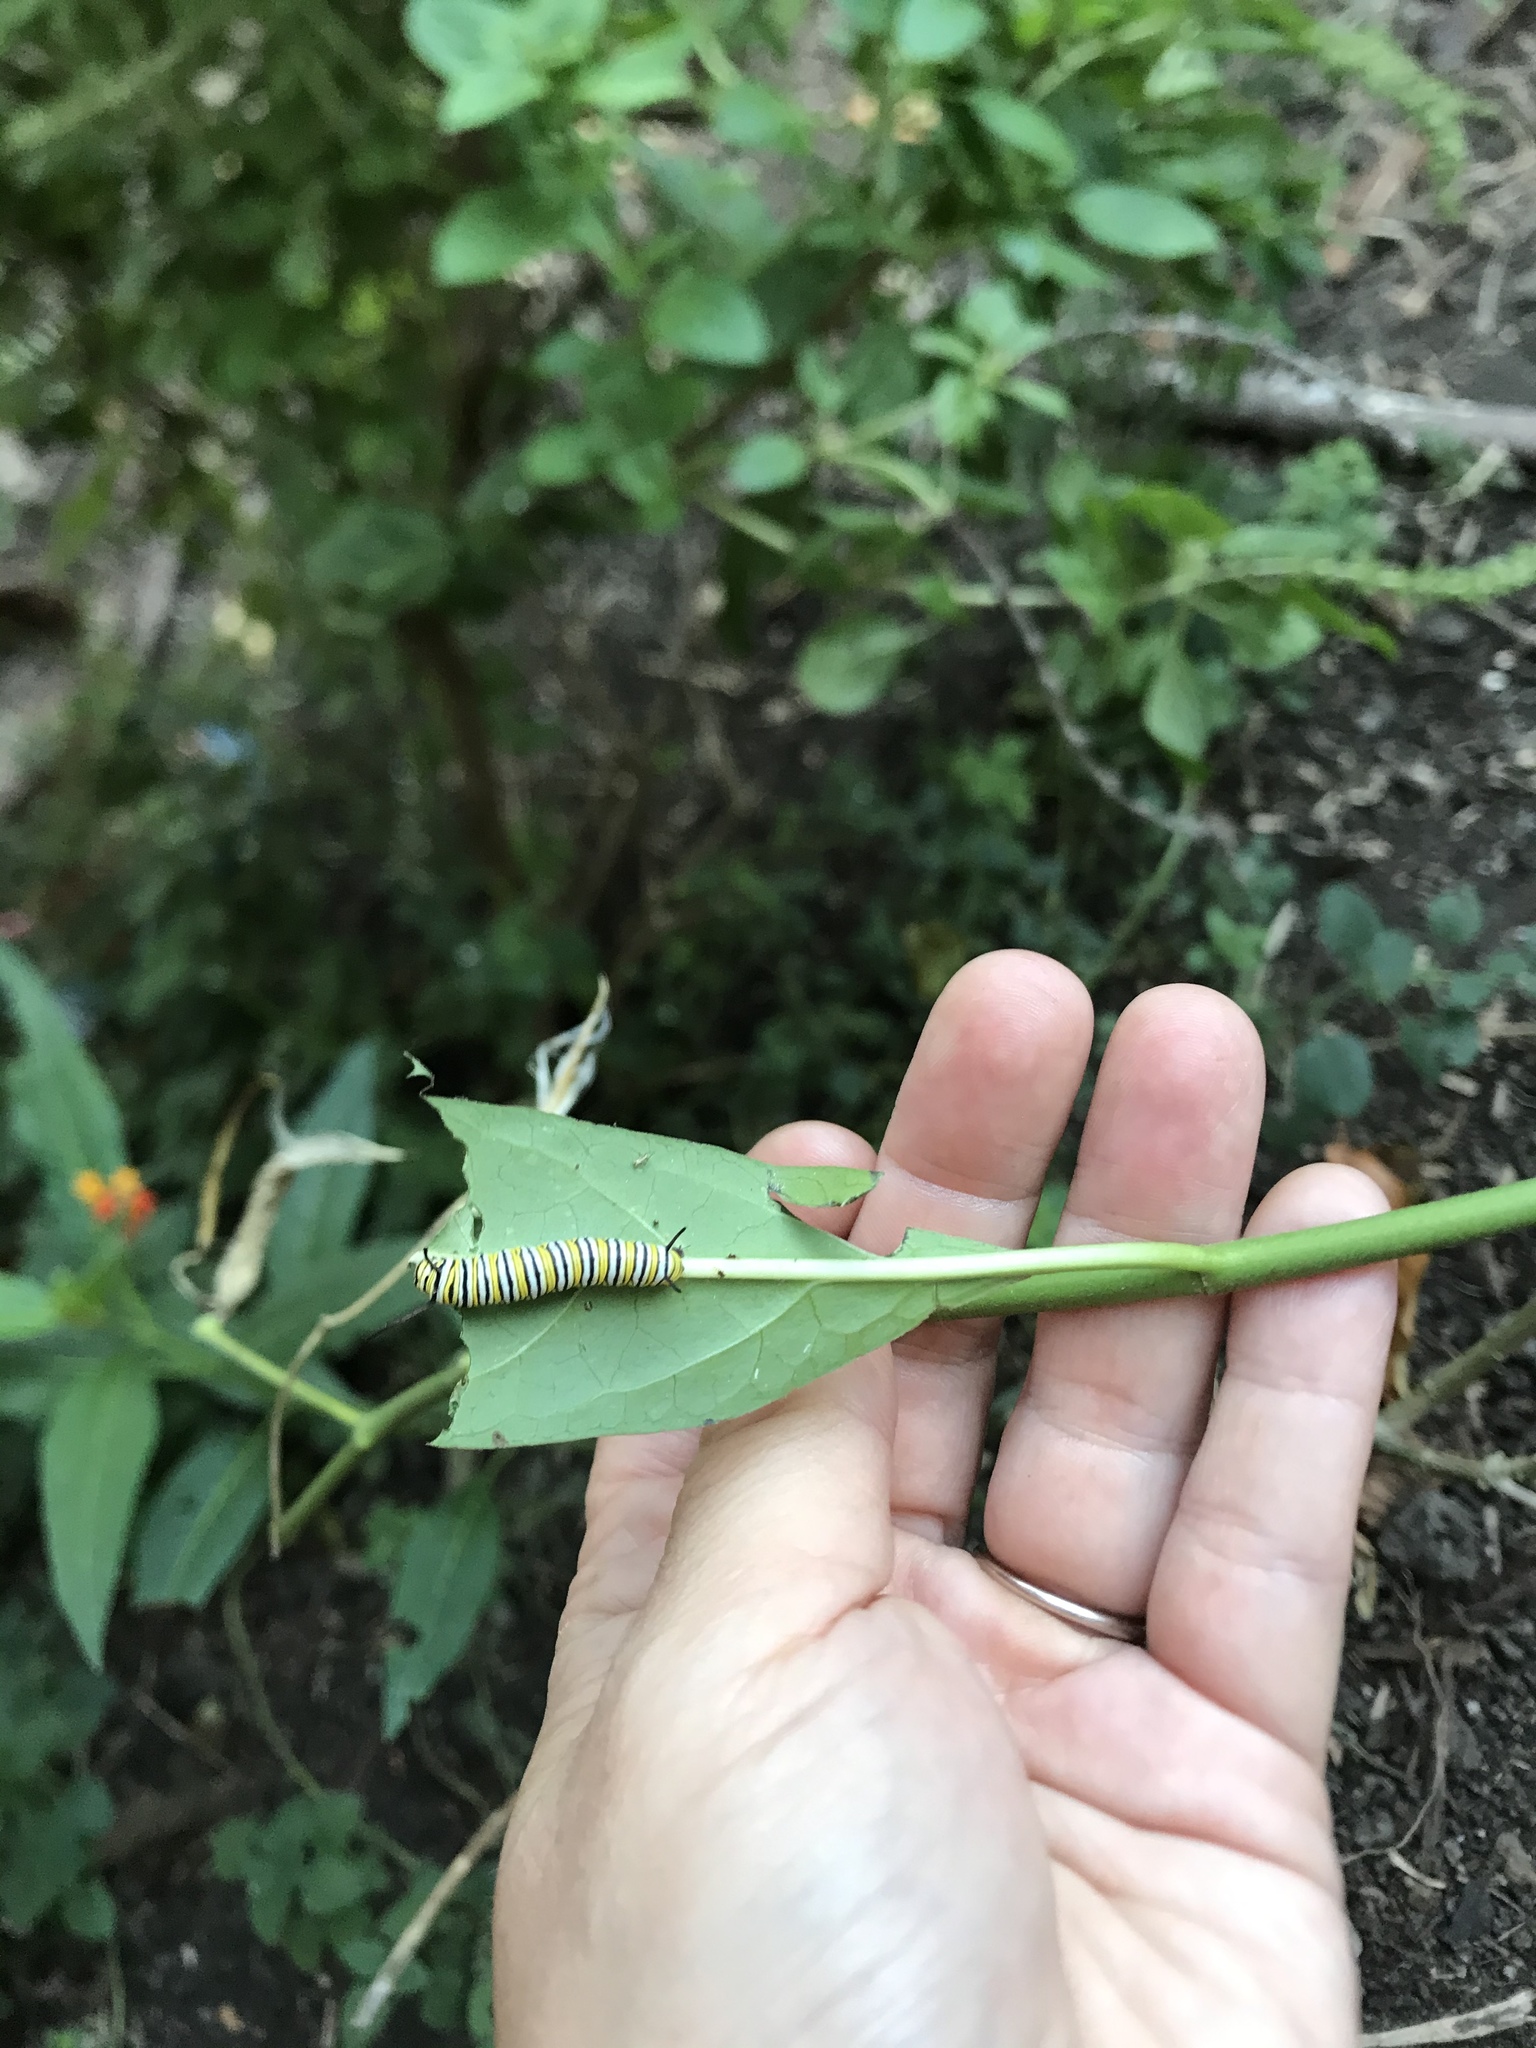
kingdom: Animalia
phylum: Arthropoda
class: Insecta
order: Lepidoptera
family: Nymphalidae
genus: Danaus
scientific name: Danaus plexippus
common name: Monarch
